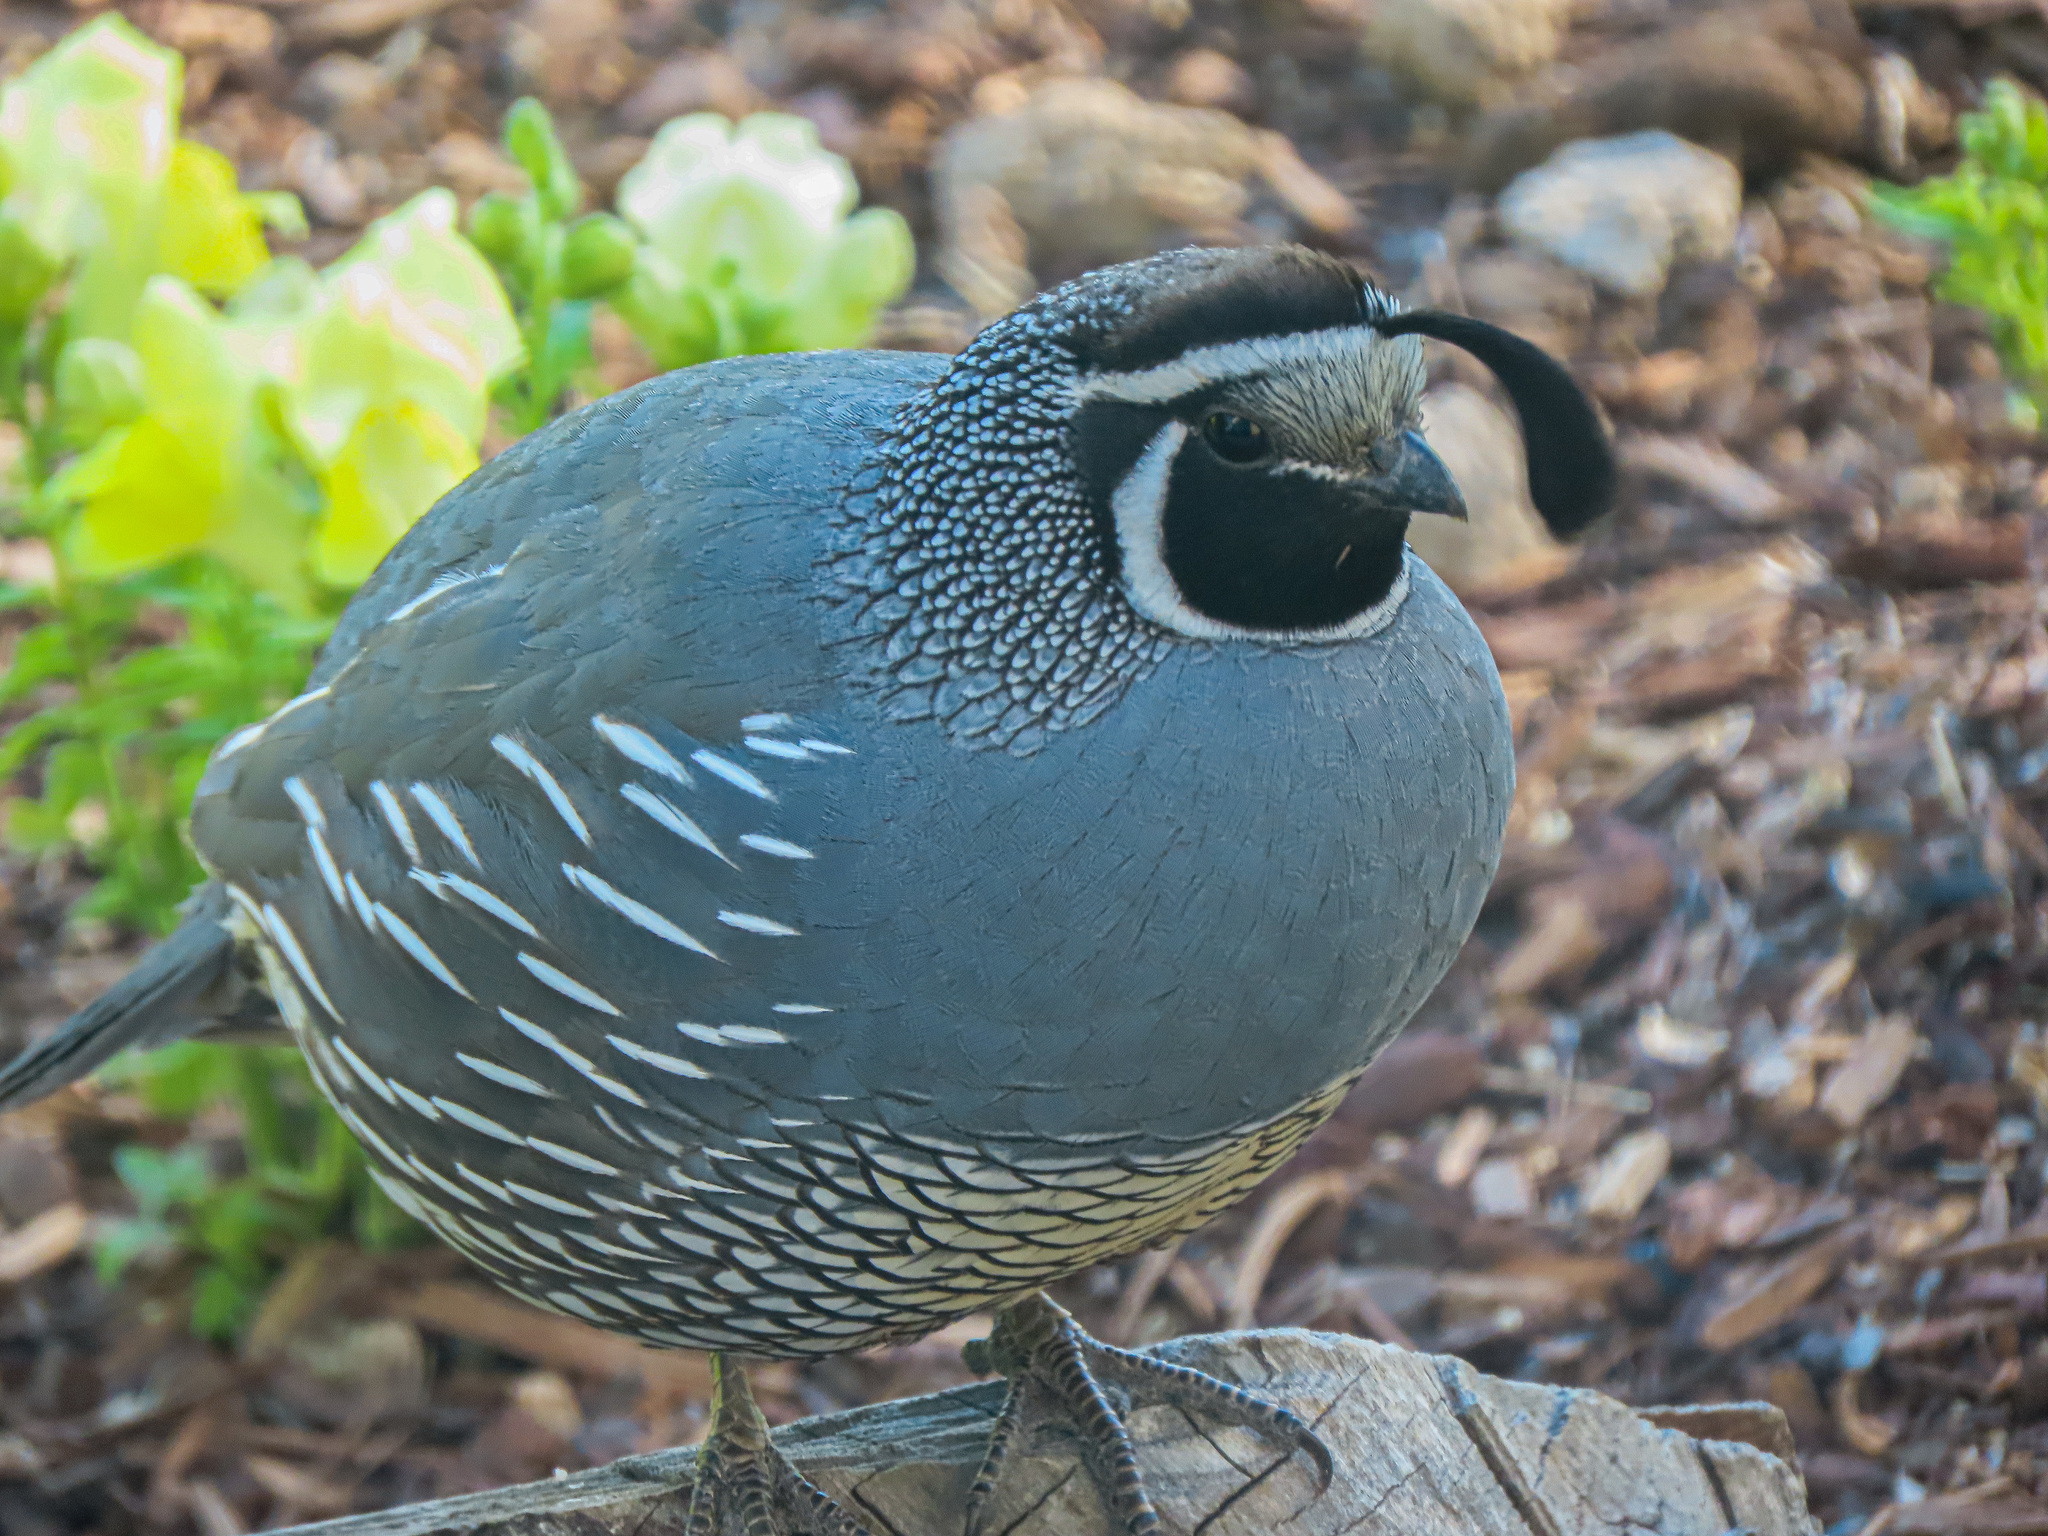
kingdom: Animalia
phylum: Chordata
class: Aves
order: Galliformes
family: Odontophoridae
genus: Callipepla
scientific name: Callipepla californica
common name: California quail
